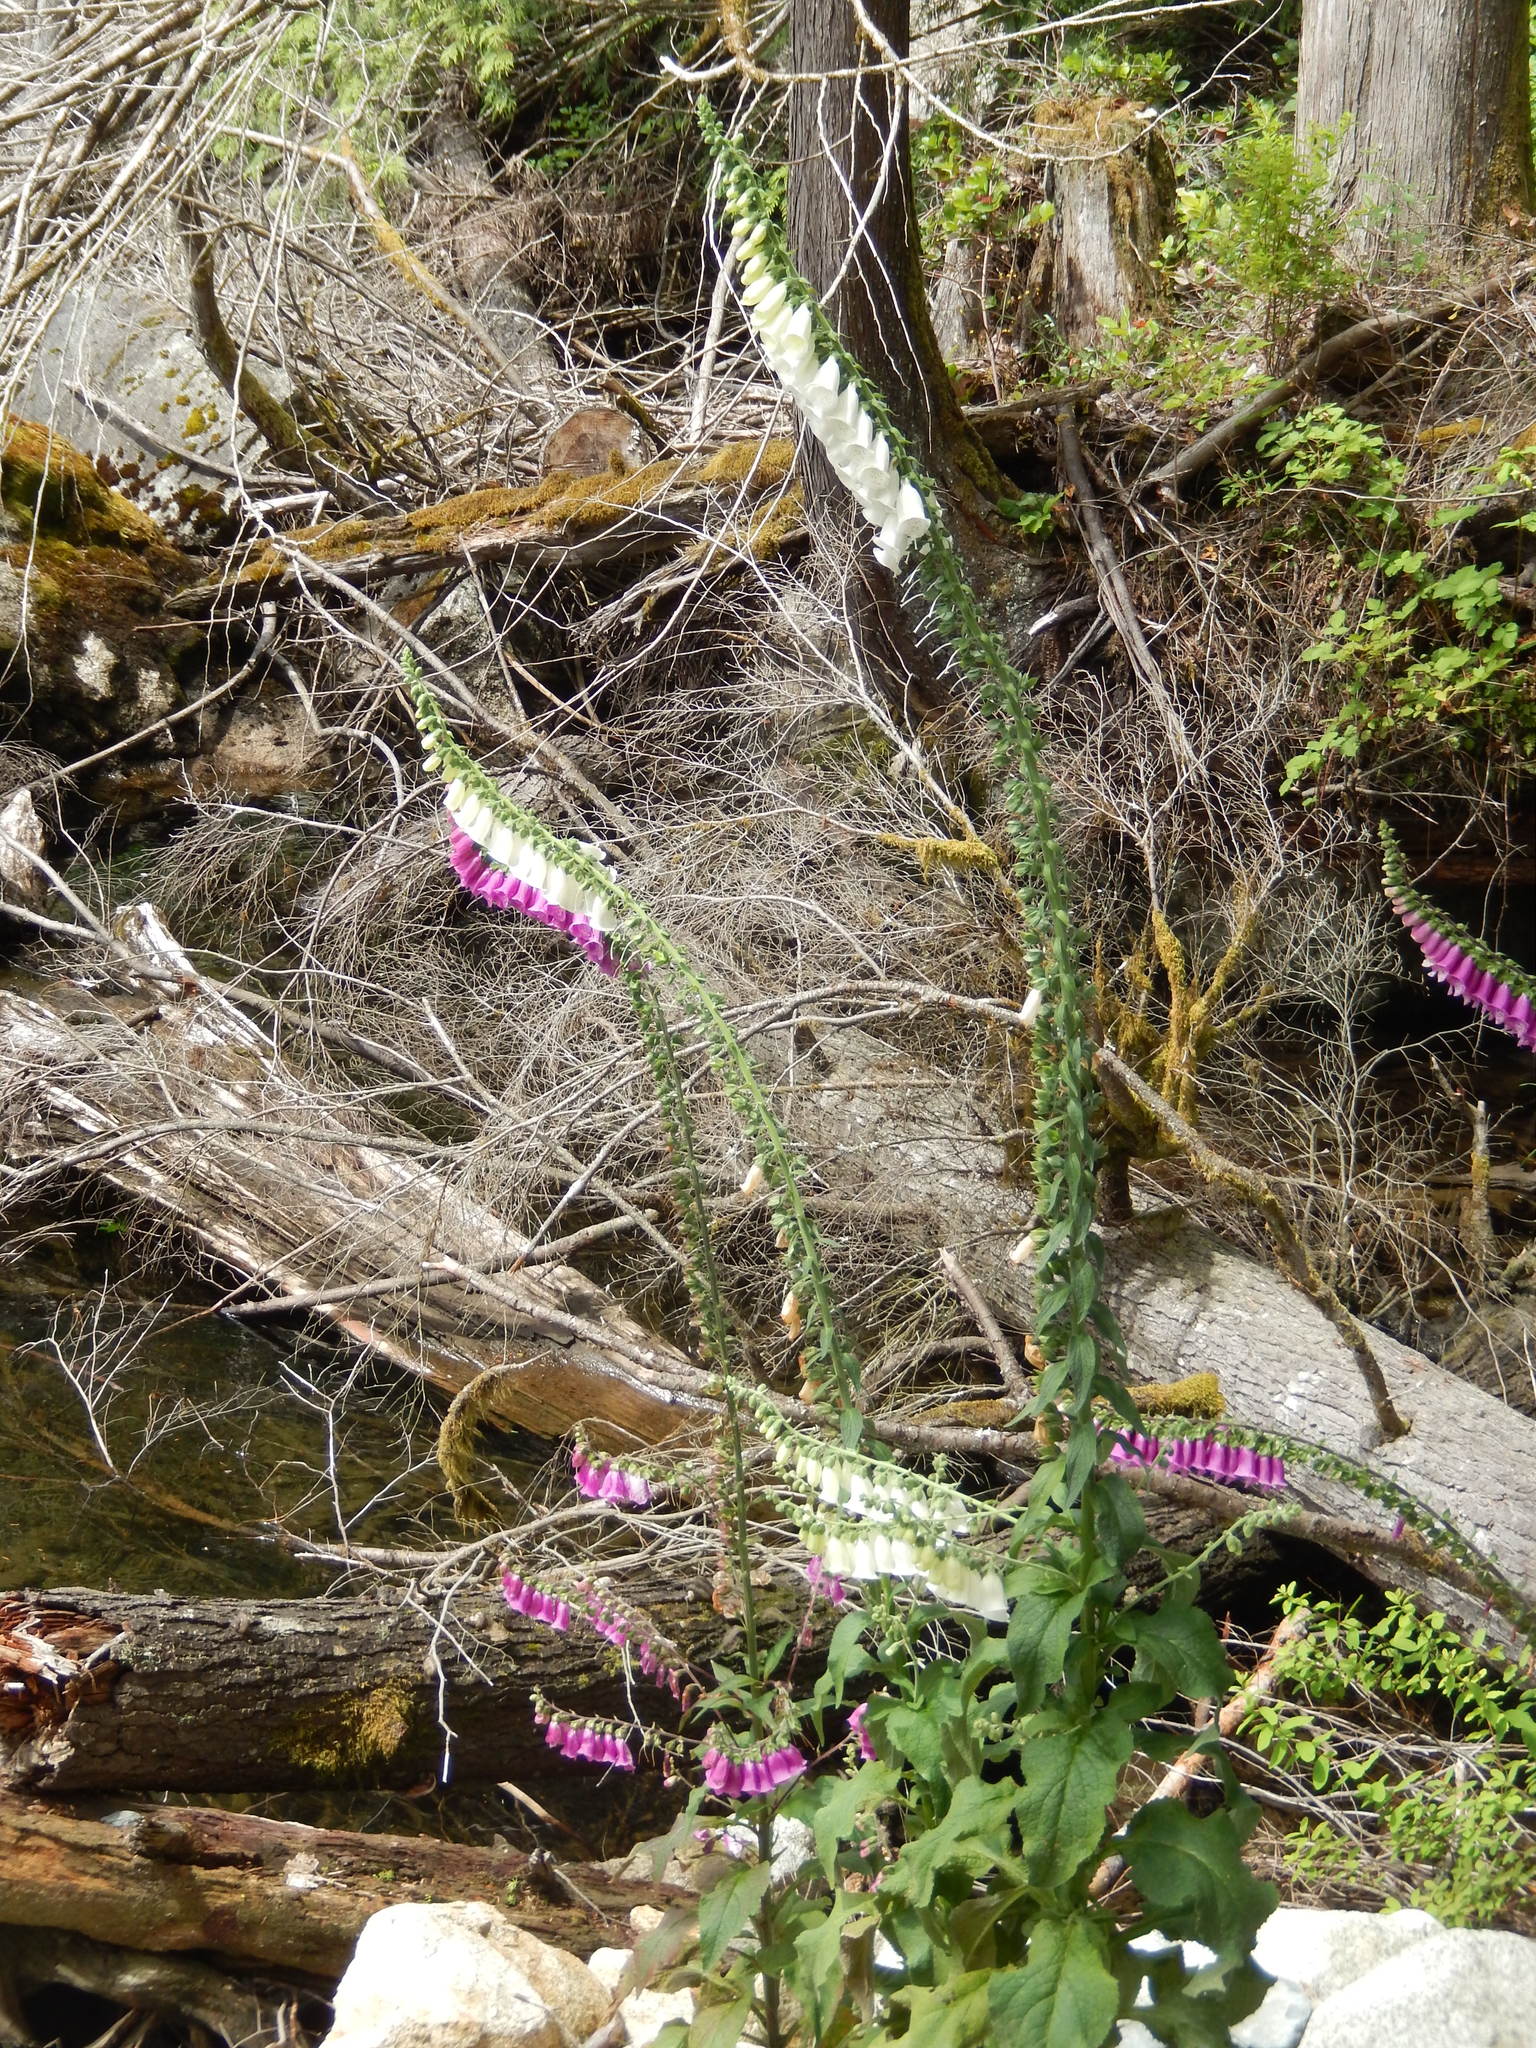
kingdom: Plantae
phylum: Tracheophyta
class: Magnoliopsida
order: Lamiales
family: Plantaginaceae
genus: Digitalis
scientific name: Digitalis purpurea
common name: Foxglove
